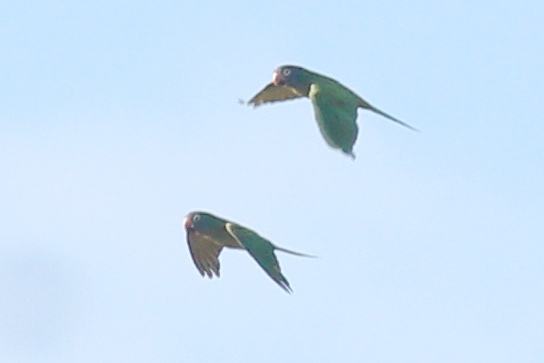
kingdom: Animalia
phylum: Chordata
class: Aves
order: Psittaciformes
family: Psittacidae
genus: Aratinga
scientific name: Aratinga acuticaudata
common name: Blue-crowned parakeet
